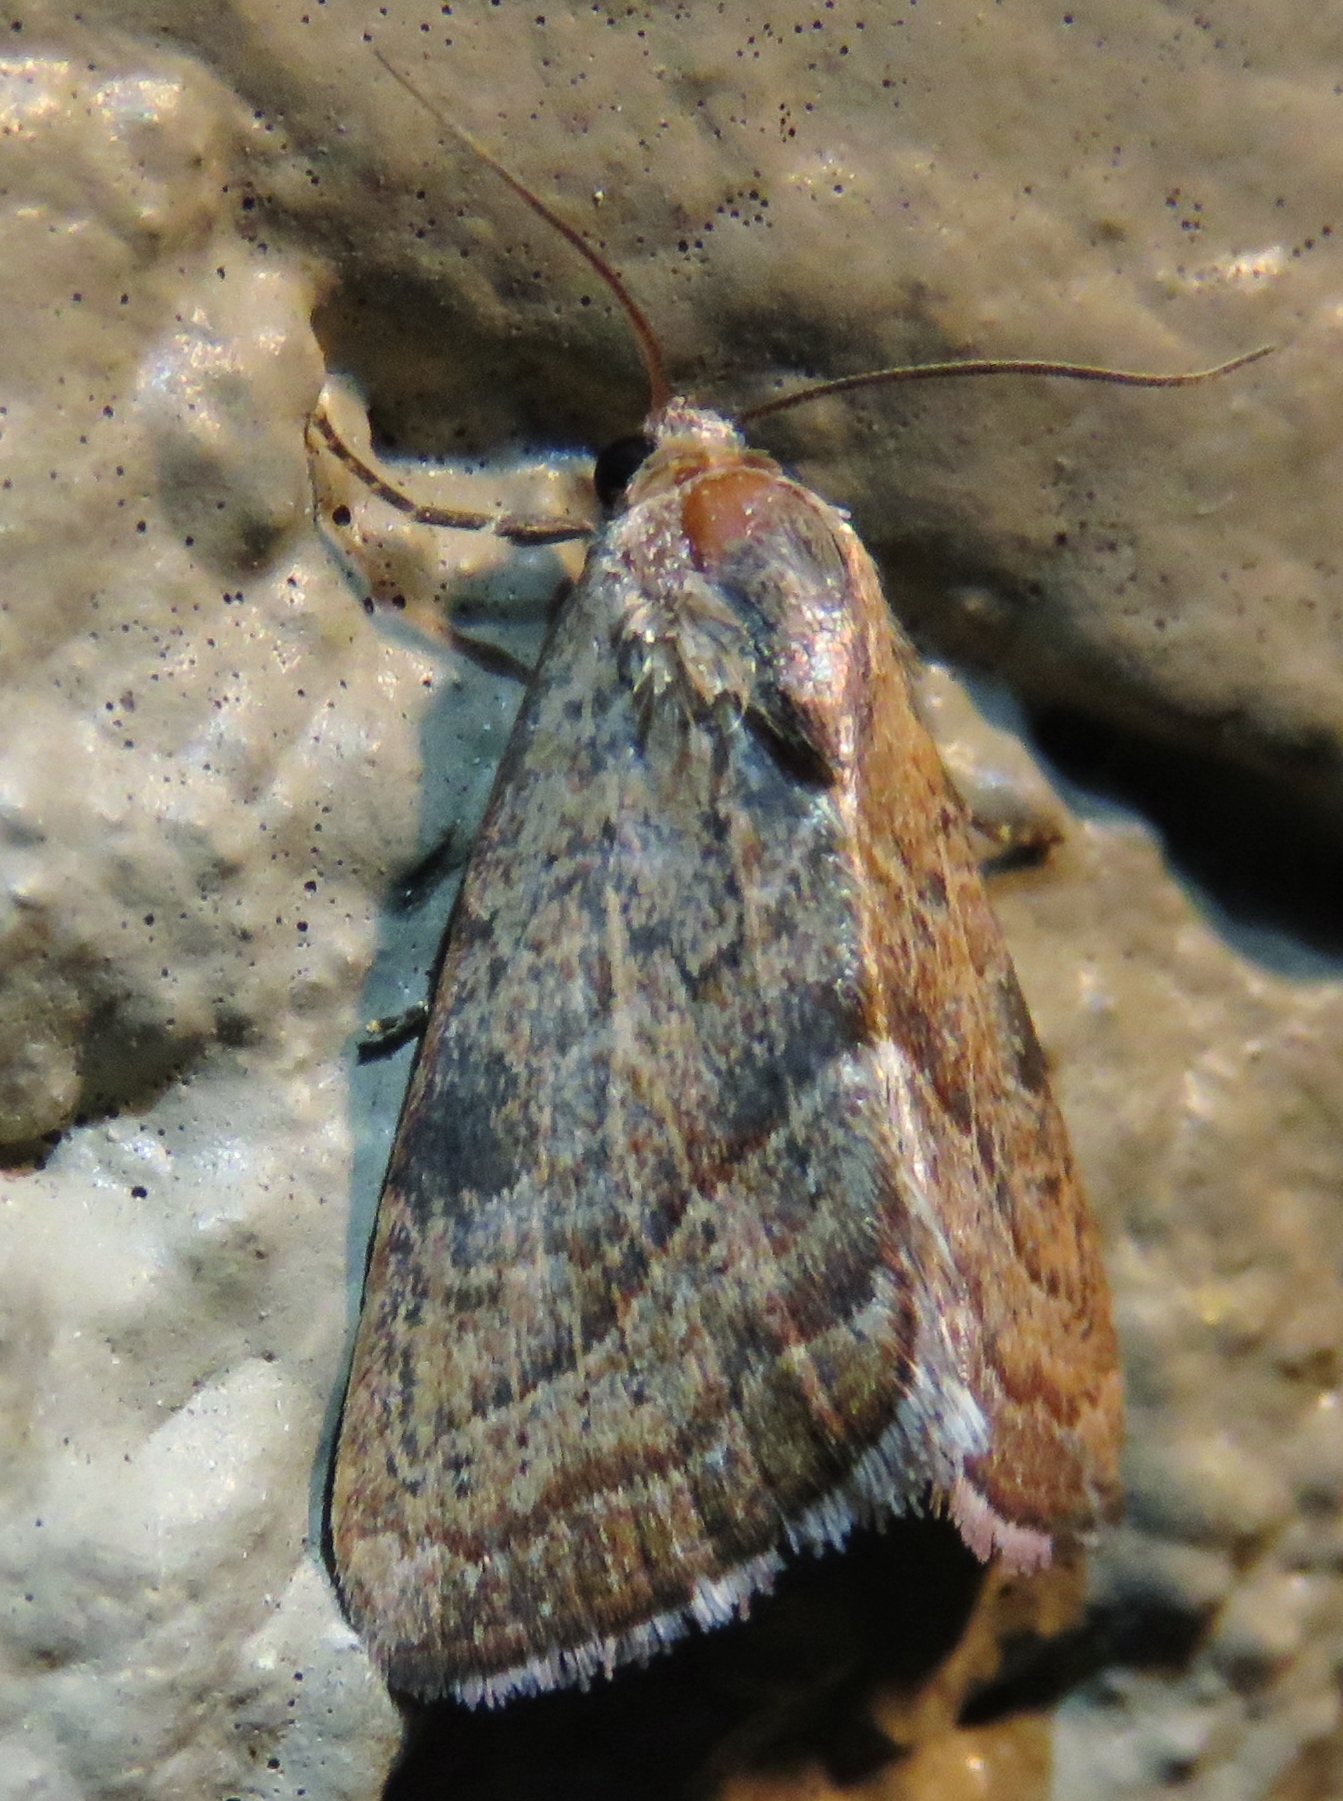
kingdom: Animalia
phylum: Arthropoda
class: Insecta
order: Lepidoptera
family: Noctuidae
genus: Galgula
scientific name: Galgula partita
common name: Wedgeling
